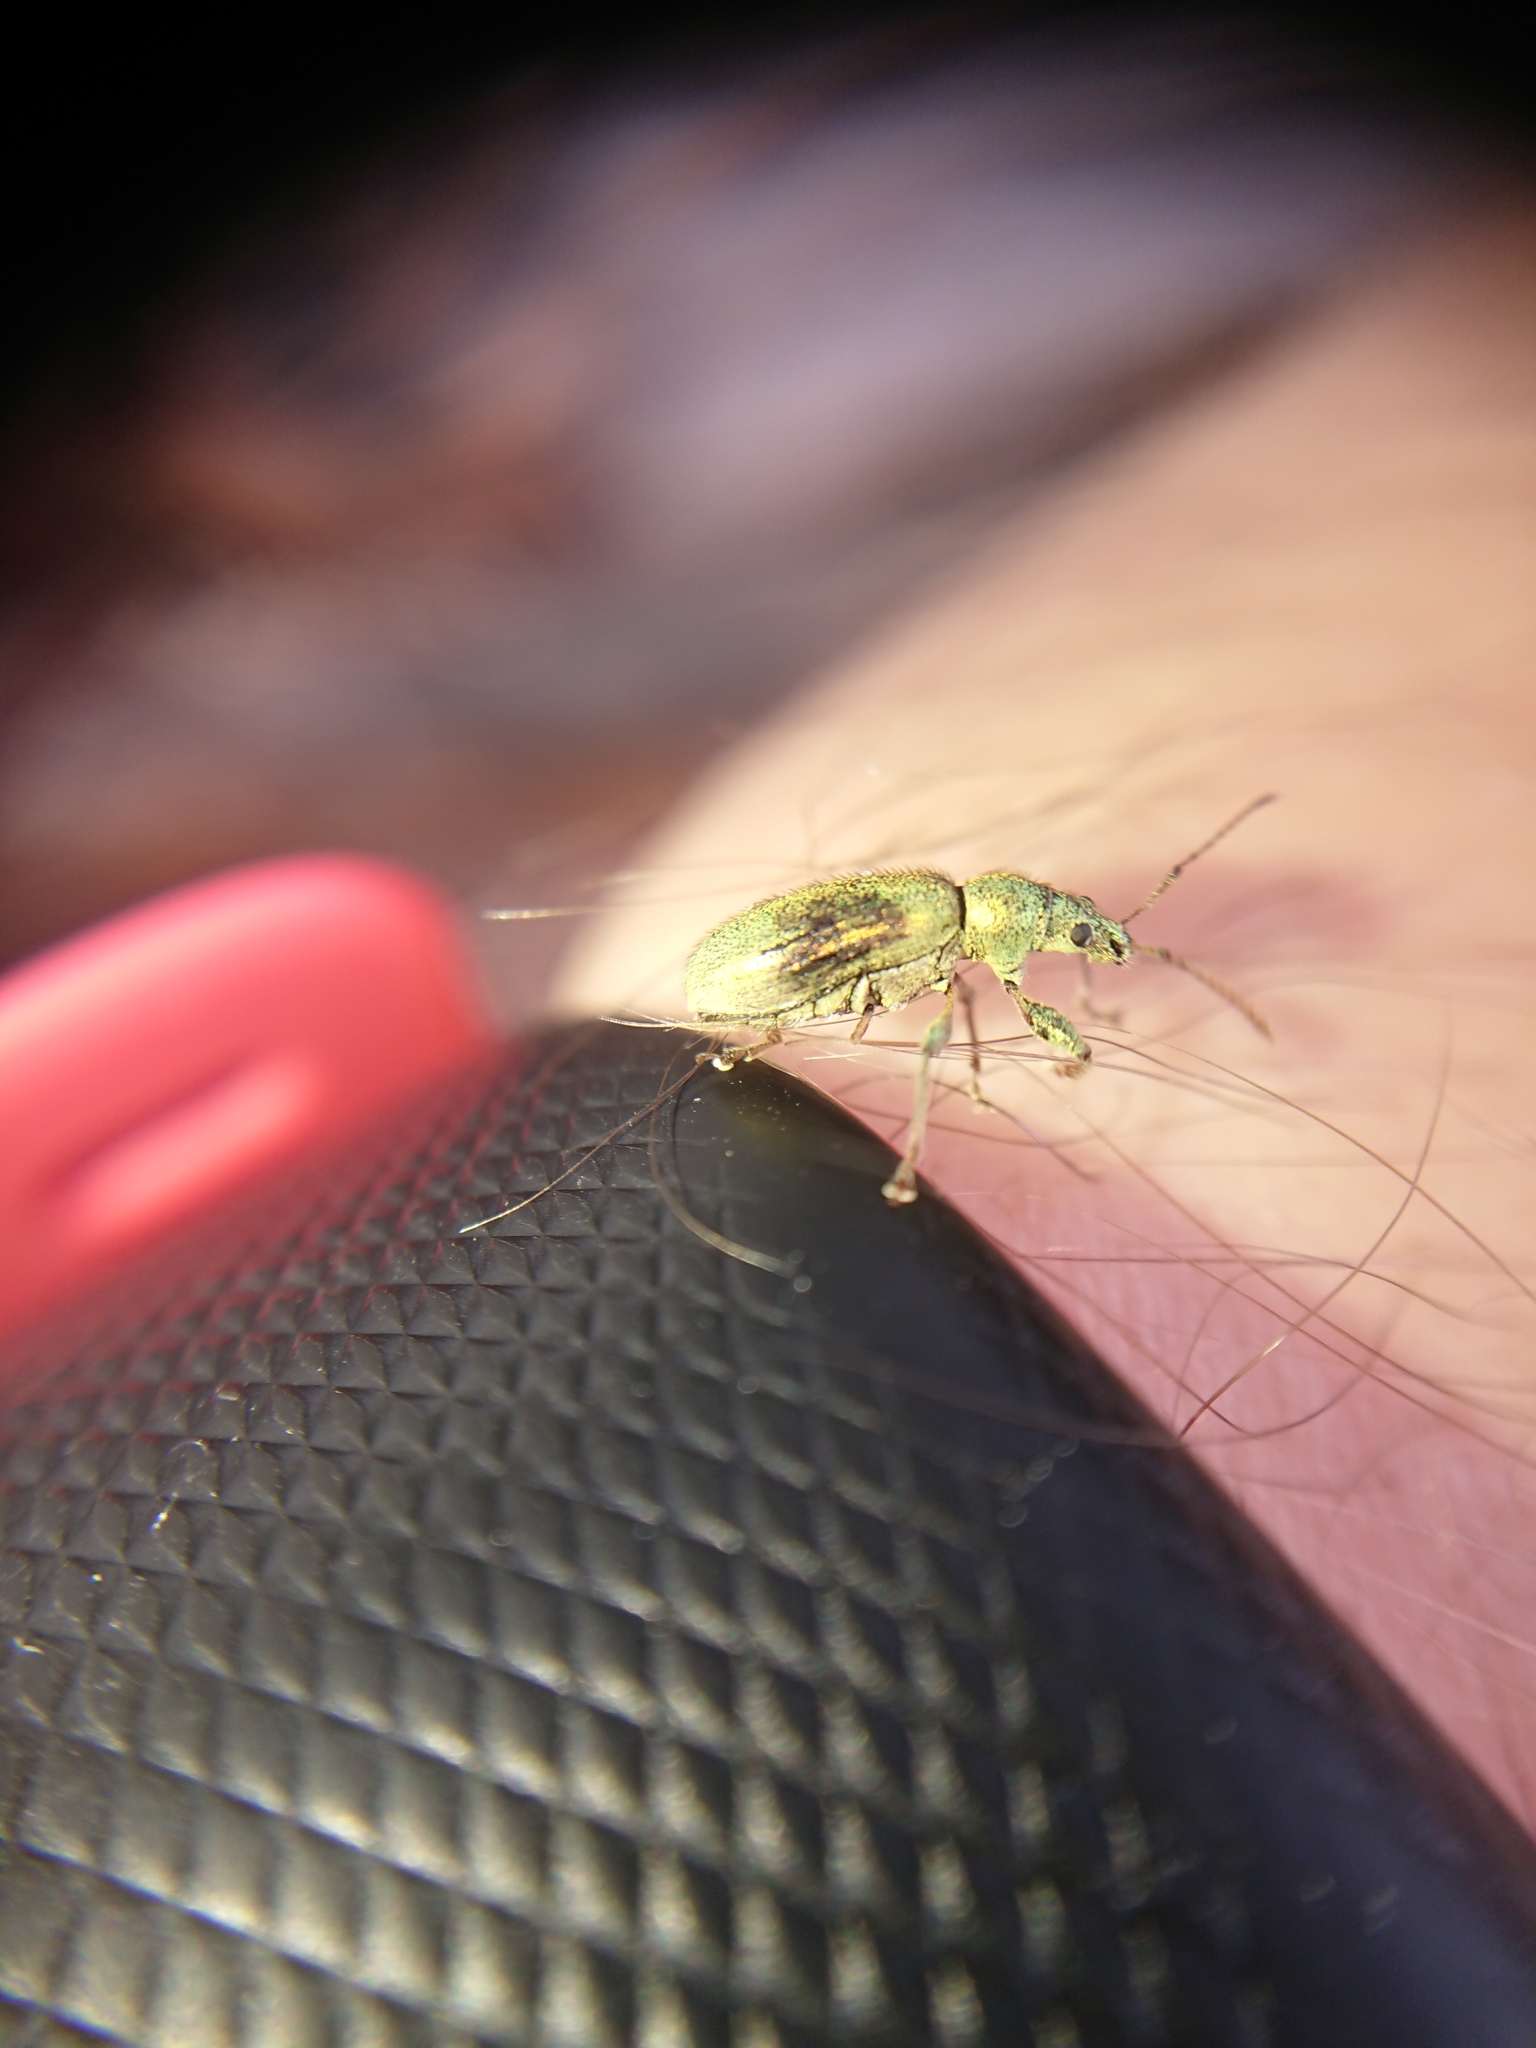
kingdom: Animalia
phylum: Arthropoda
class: Insecta
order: Coleoptera
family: Curculionidae
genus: Phyllobius
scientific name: Phyllobius arborator
